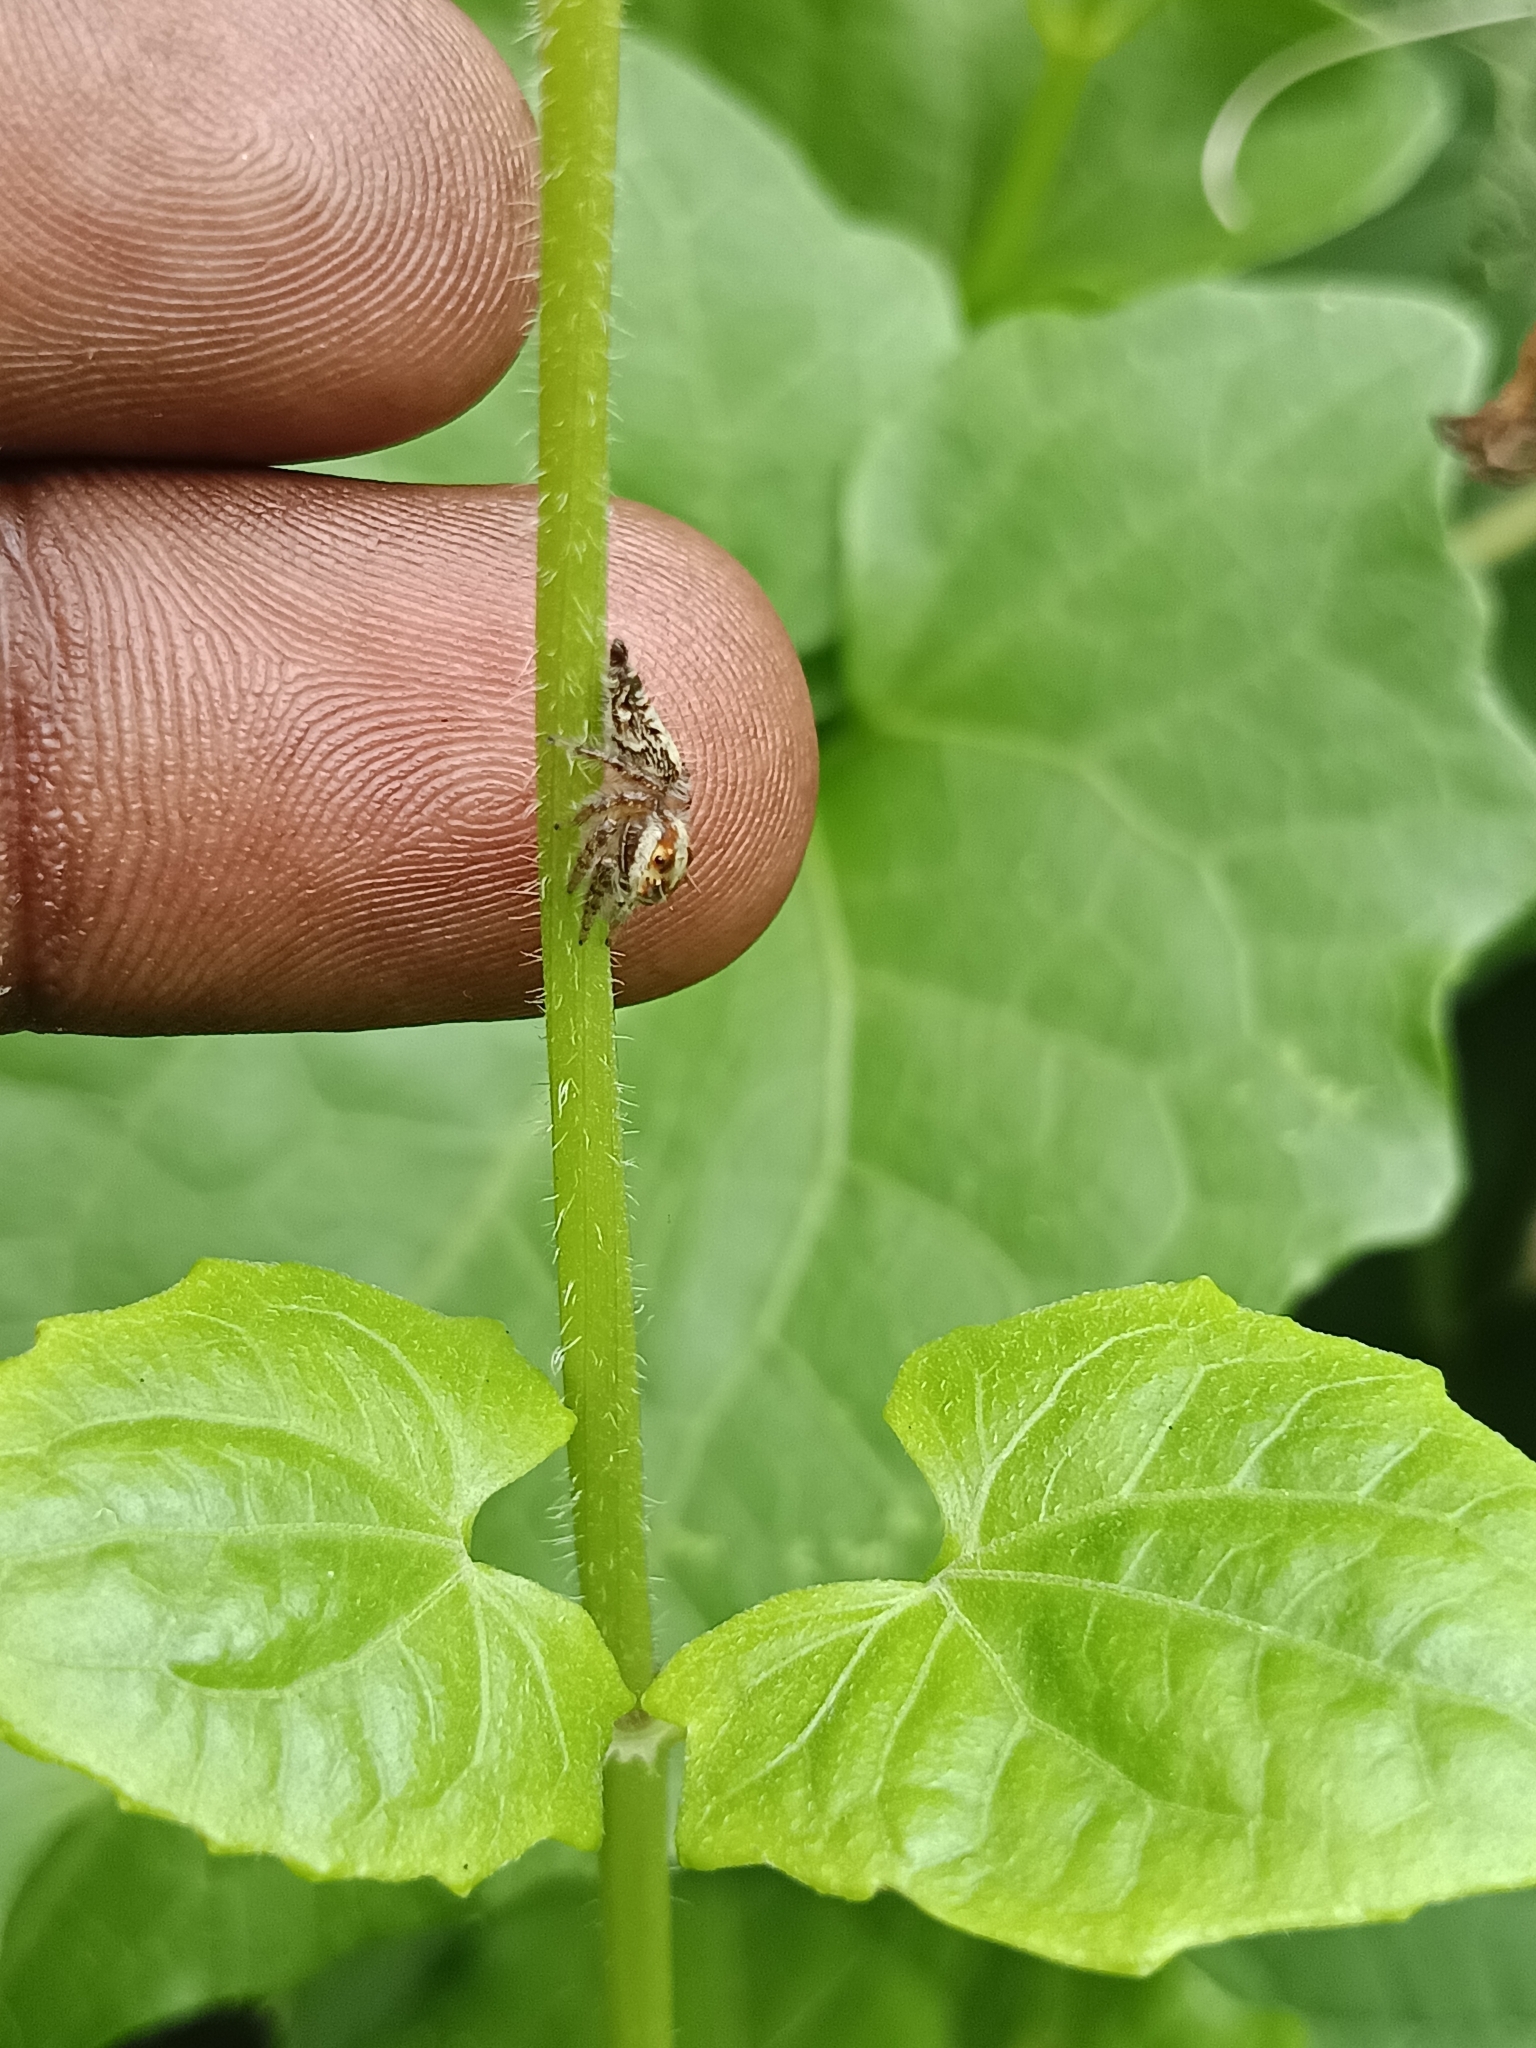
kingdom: Animalia
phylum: Arthropoda
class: Arachnida
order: Araneae
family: Salticidae
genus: Hyllus
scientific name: Hyllus semicupreus
